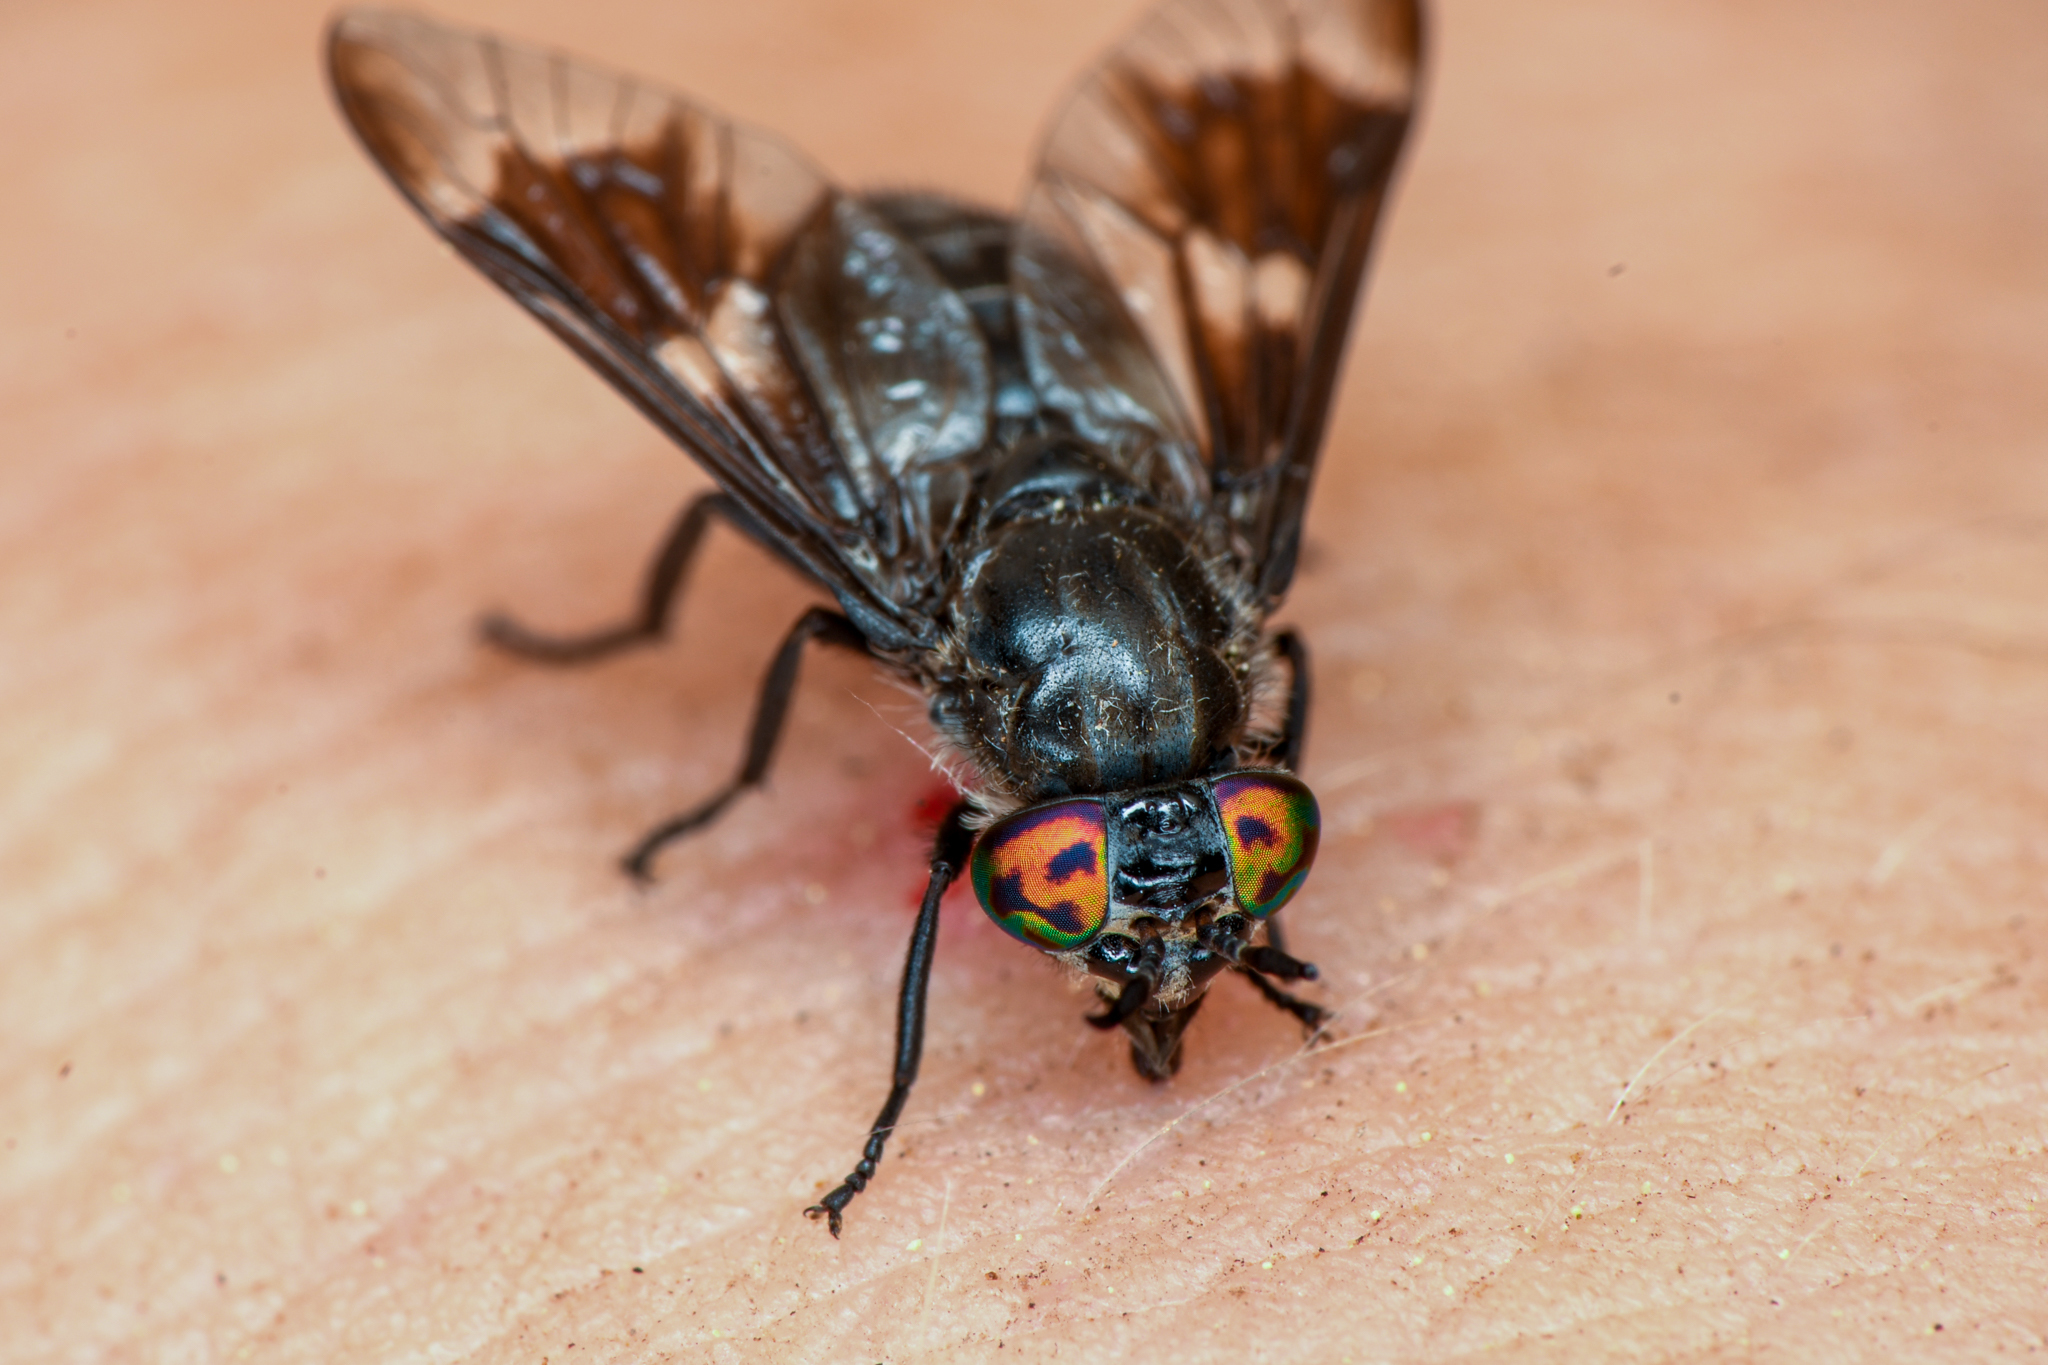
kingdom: Animalia
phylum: Arthropoda
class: Insecta
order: Diptera
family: Tabanidae
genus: Chrysops
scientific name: Chrysops noctifer
